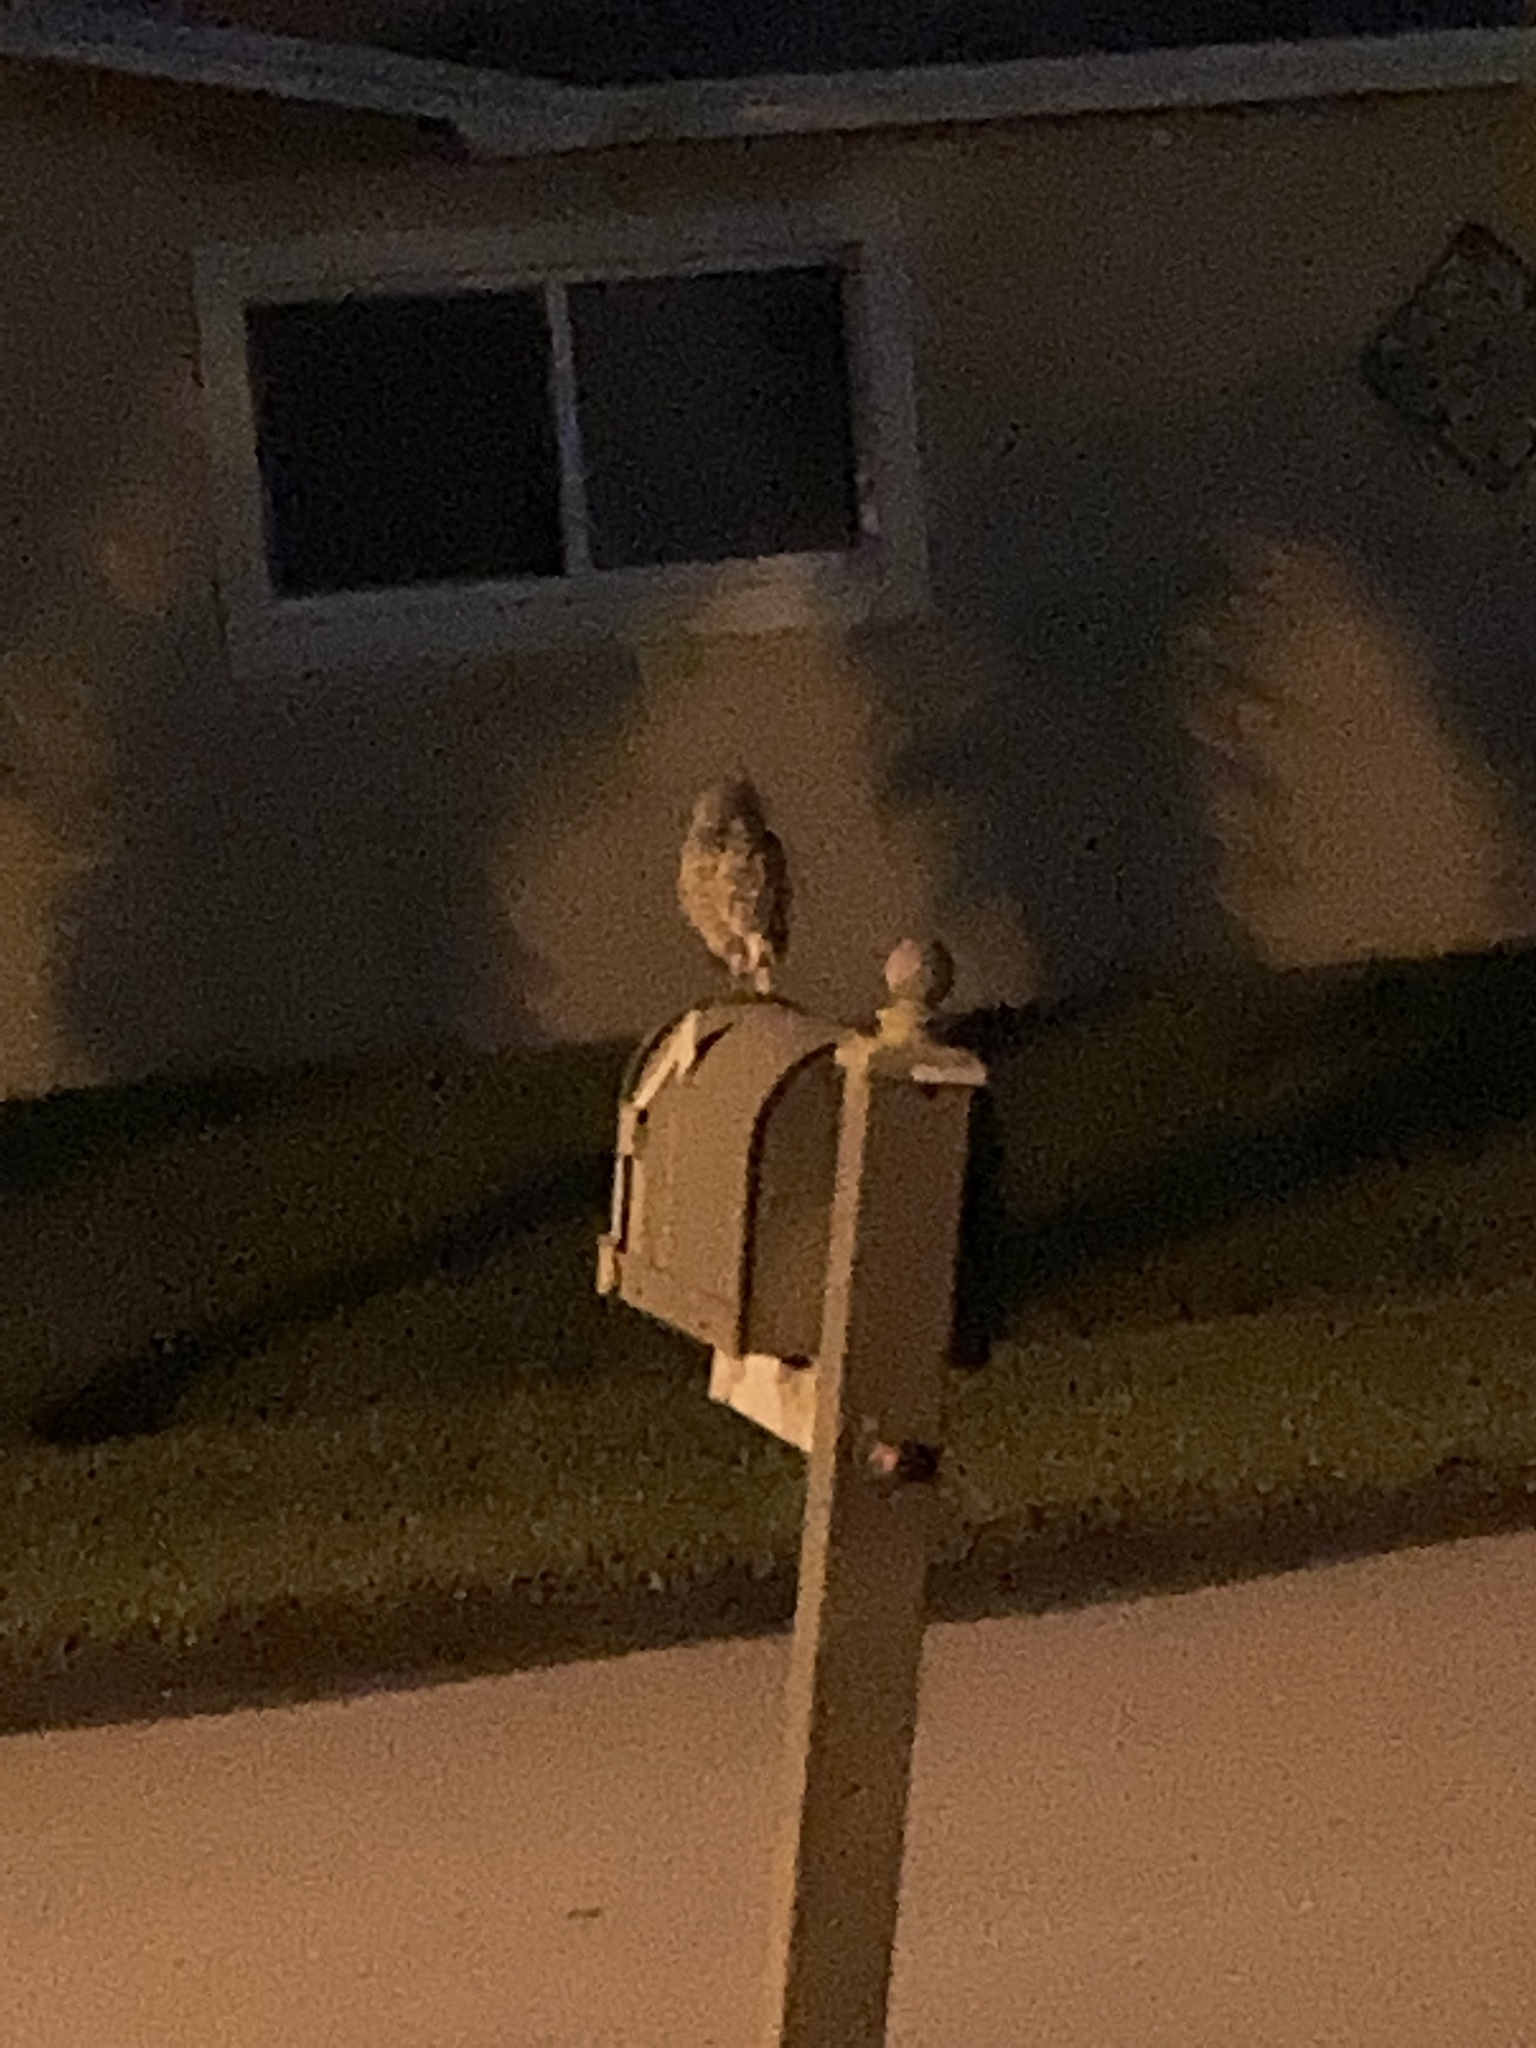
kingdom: Animalia
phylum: Chordata
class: Aves
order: Strigiformes
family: Strigidae
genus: Athene
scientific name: Athene cunicularia
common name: Burrowing owl
